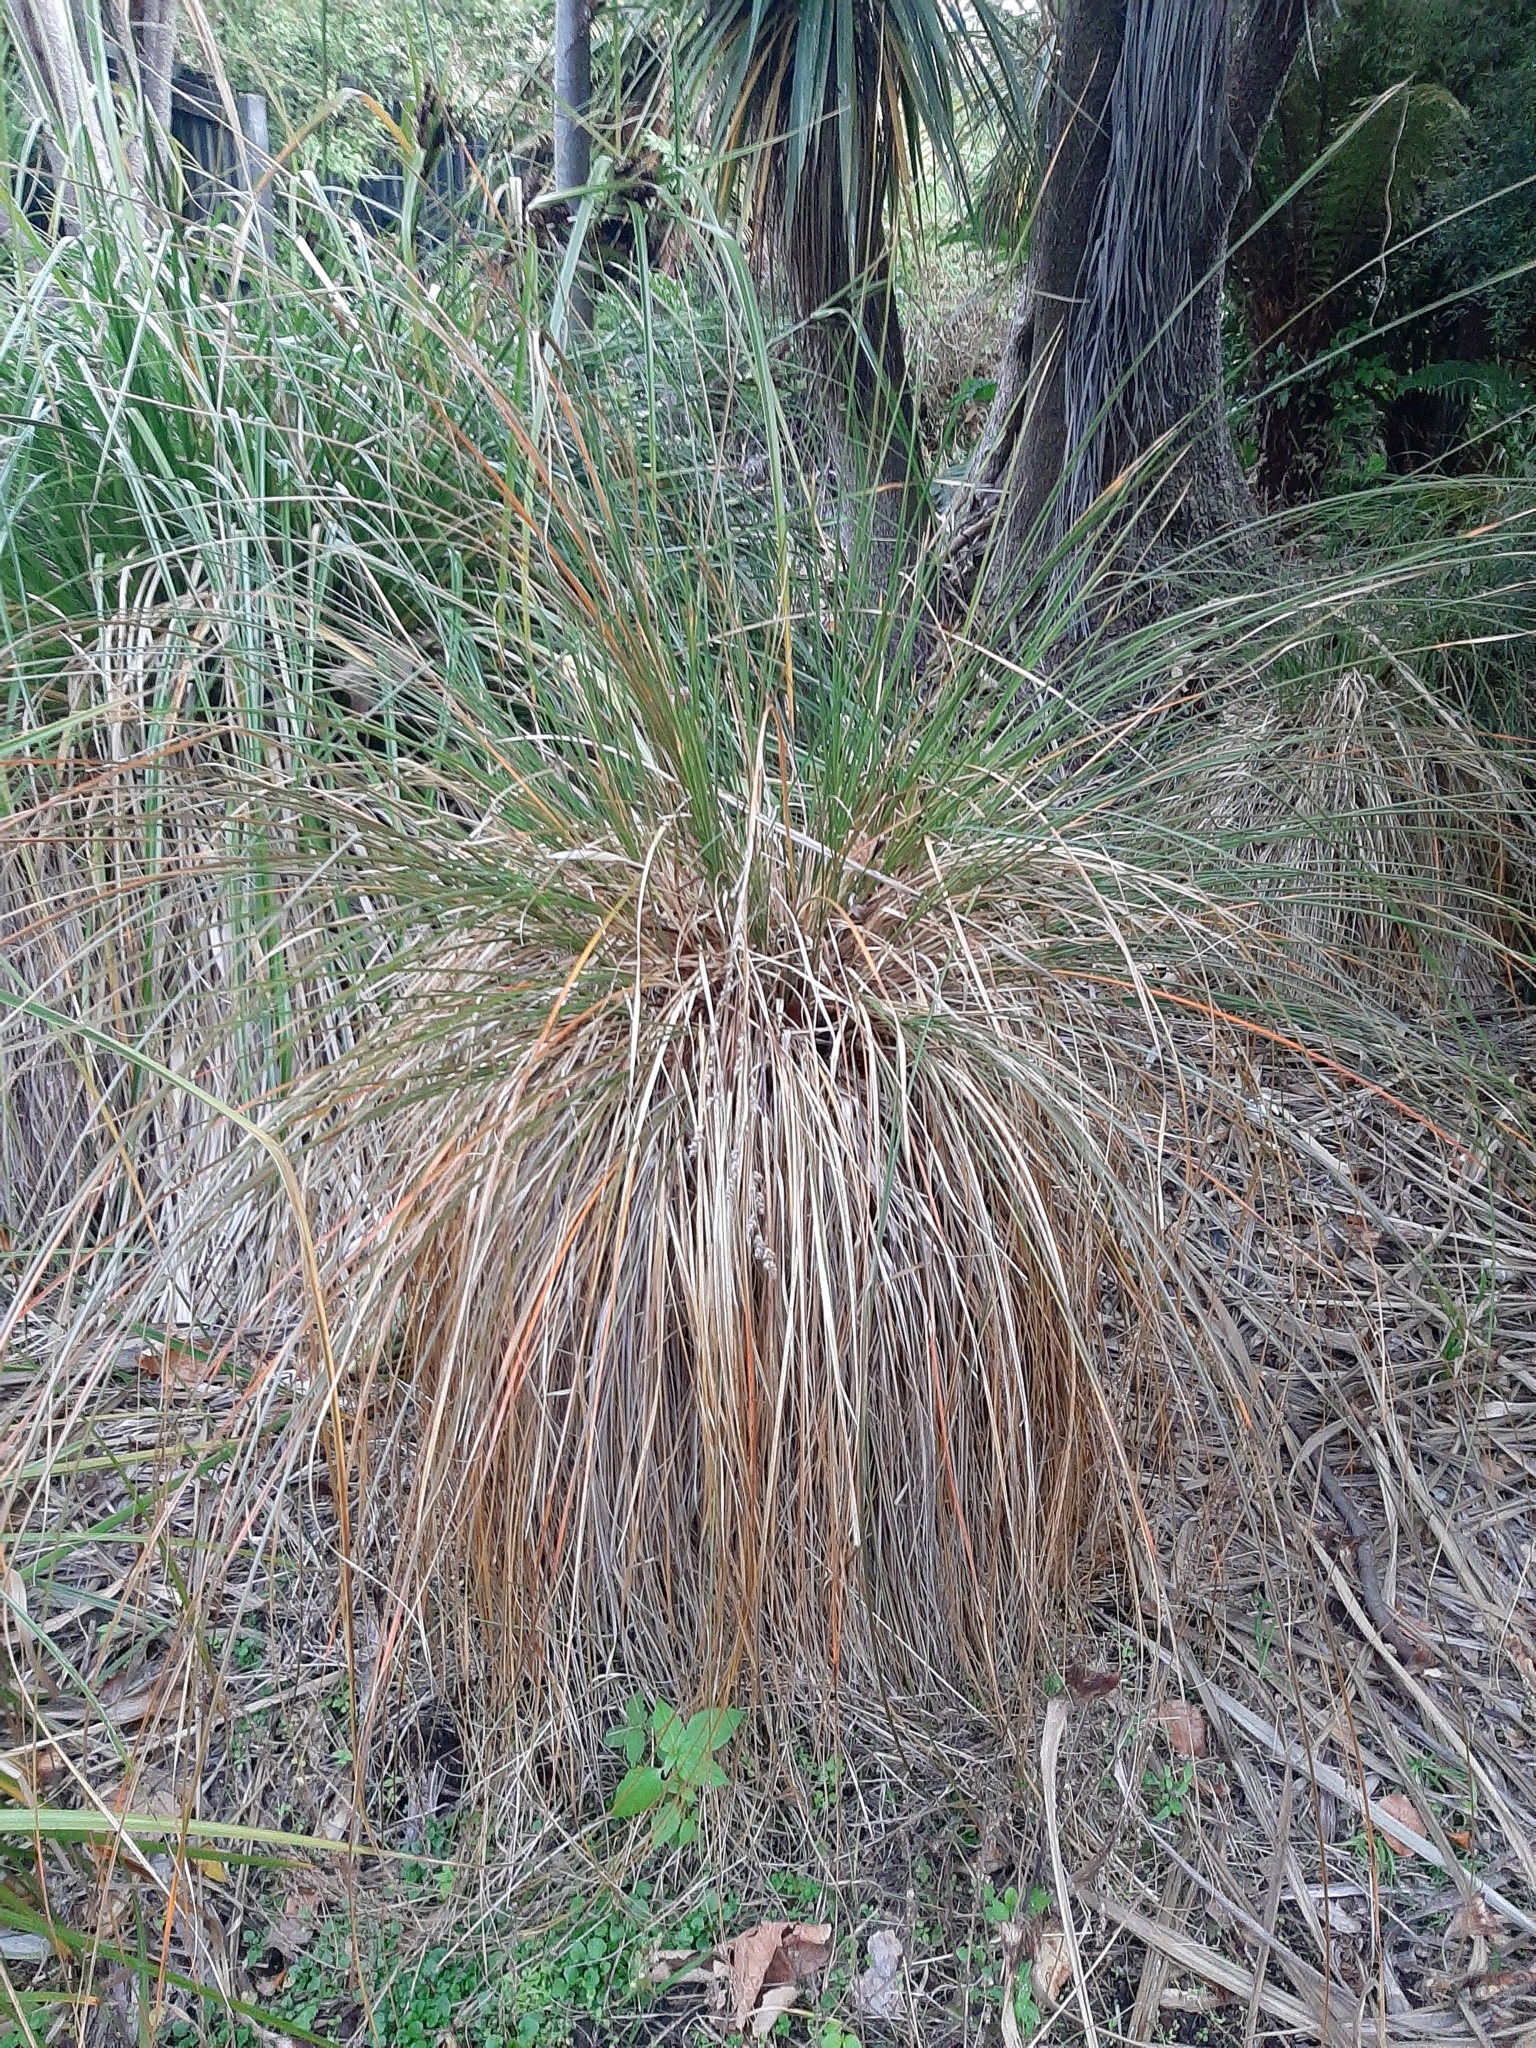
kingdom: Plantae
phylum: Tracheophyta
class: Liliopsida
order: Poales
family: Cyperaceae
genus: Carex
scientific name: Carex secta
